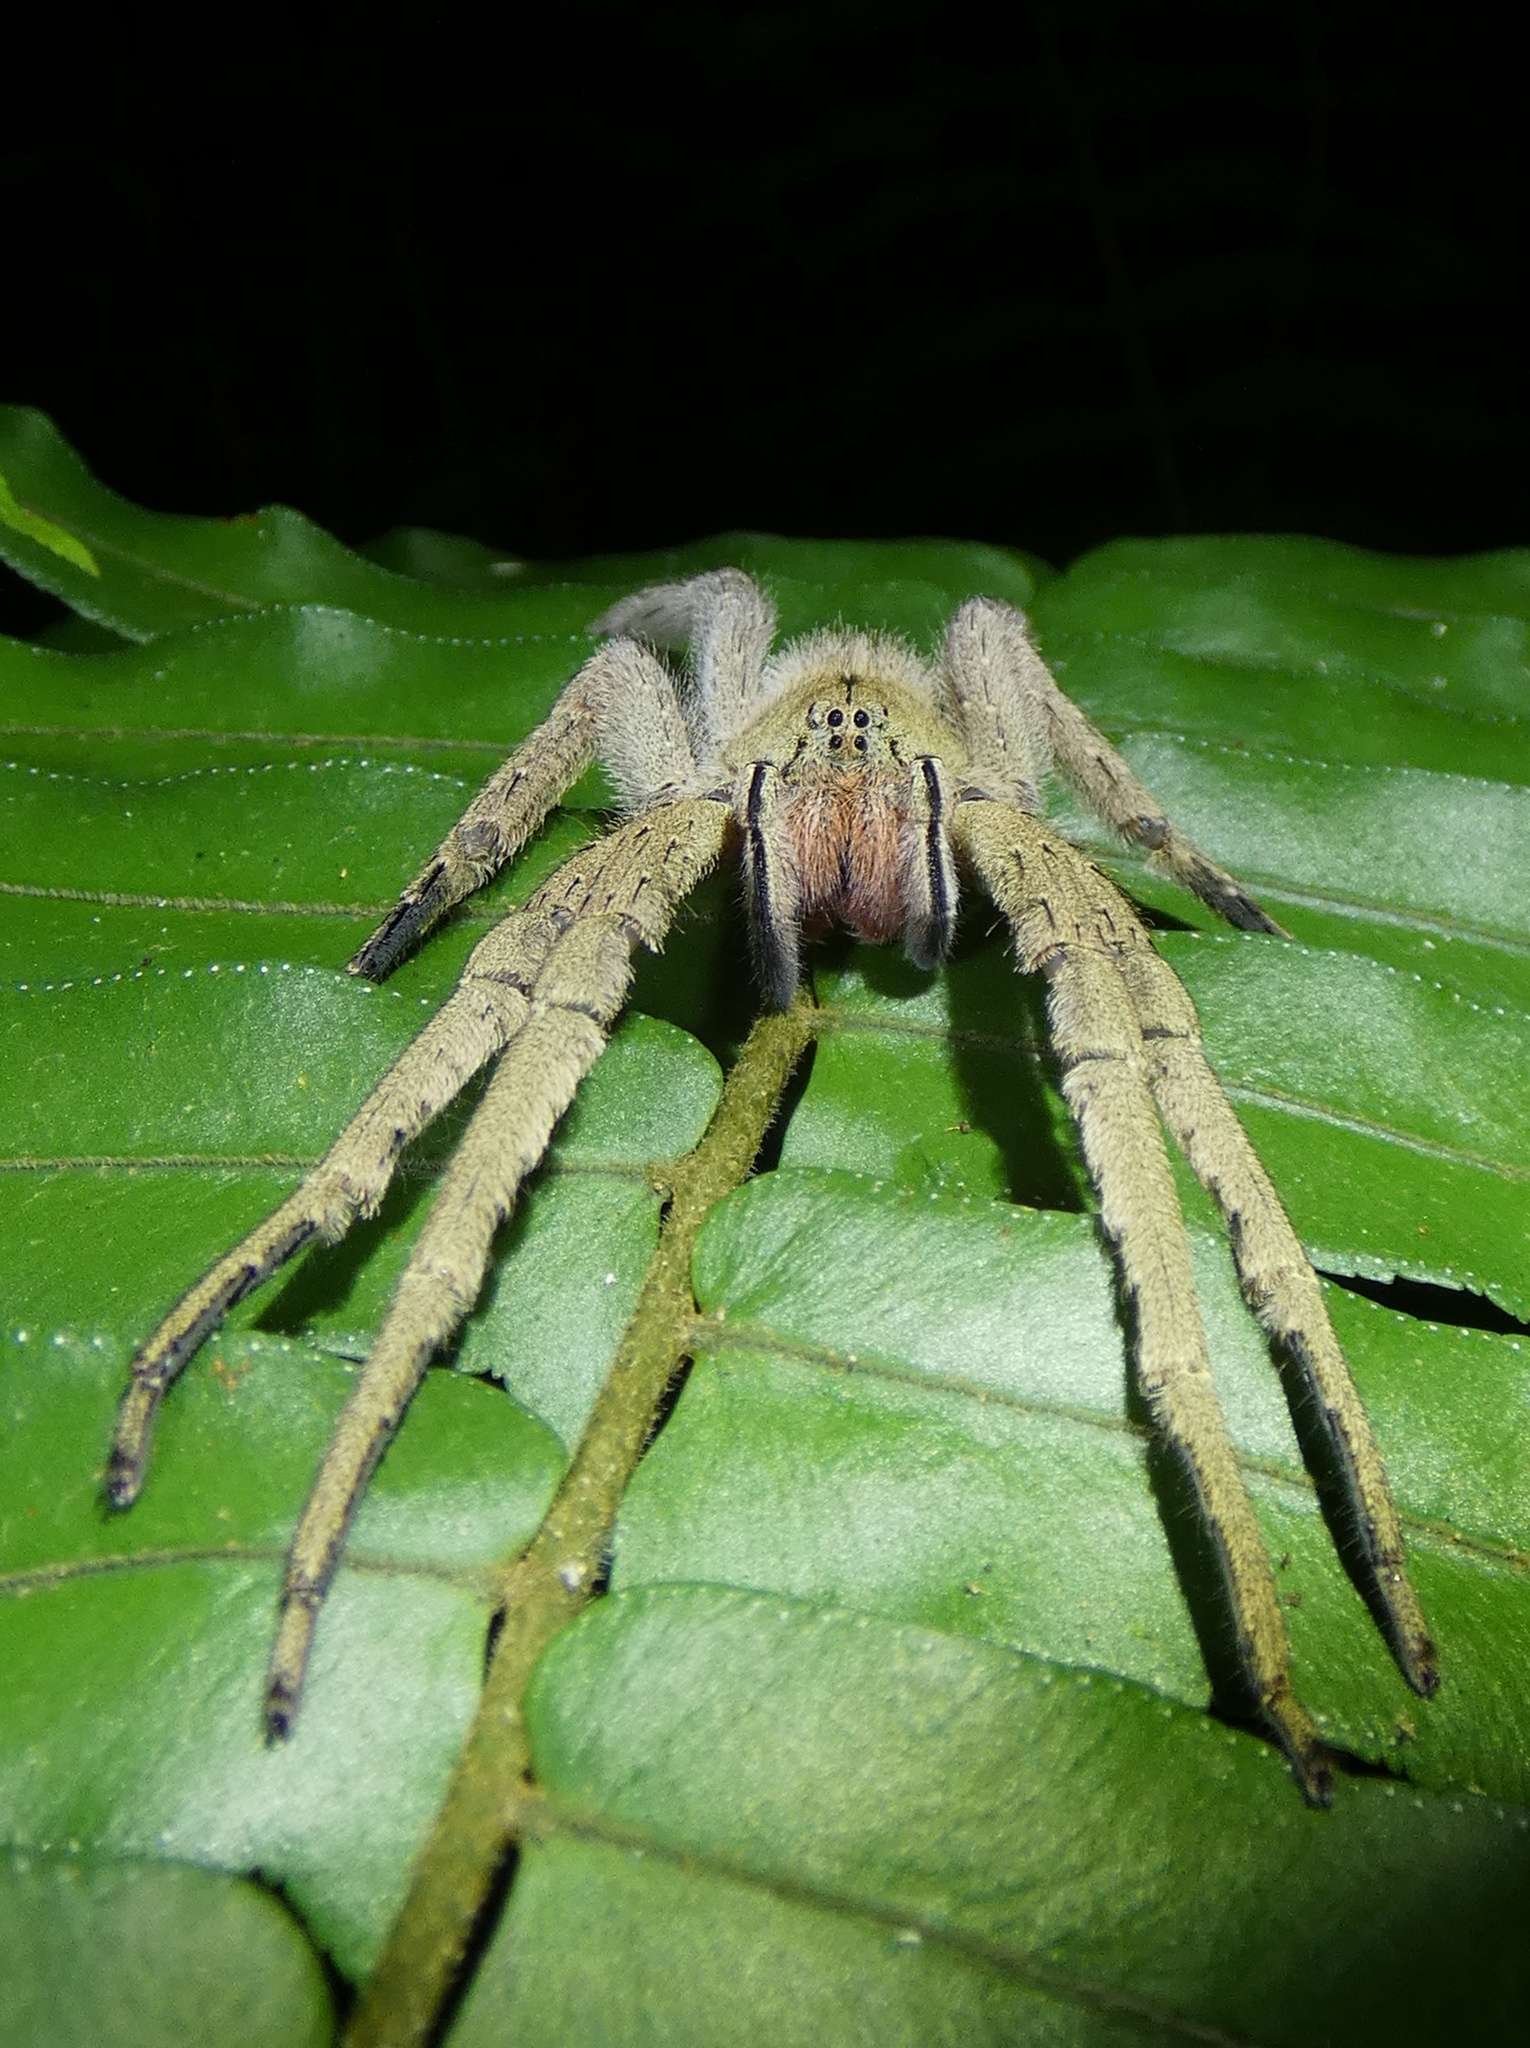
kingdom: Animalia
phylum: Arthropoda
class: Arachnida
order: Araneae
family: Ctenidae
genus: Phoneutria
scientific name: Phoneutria depilata
